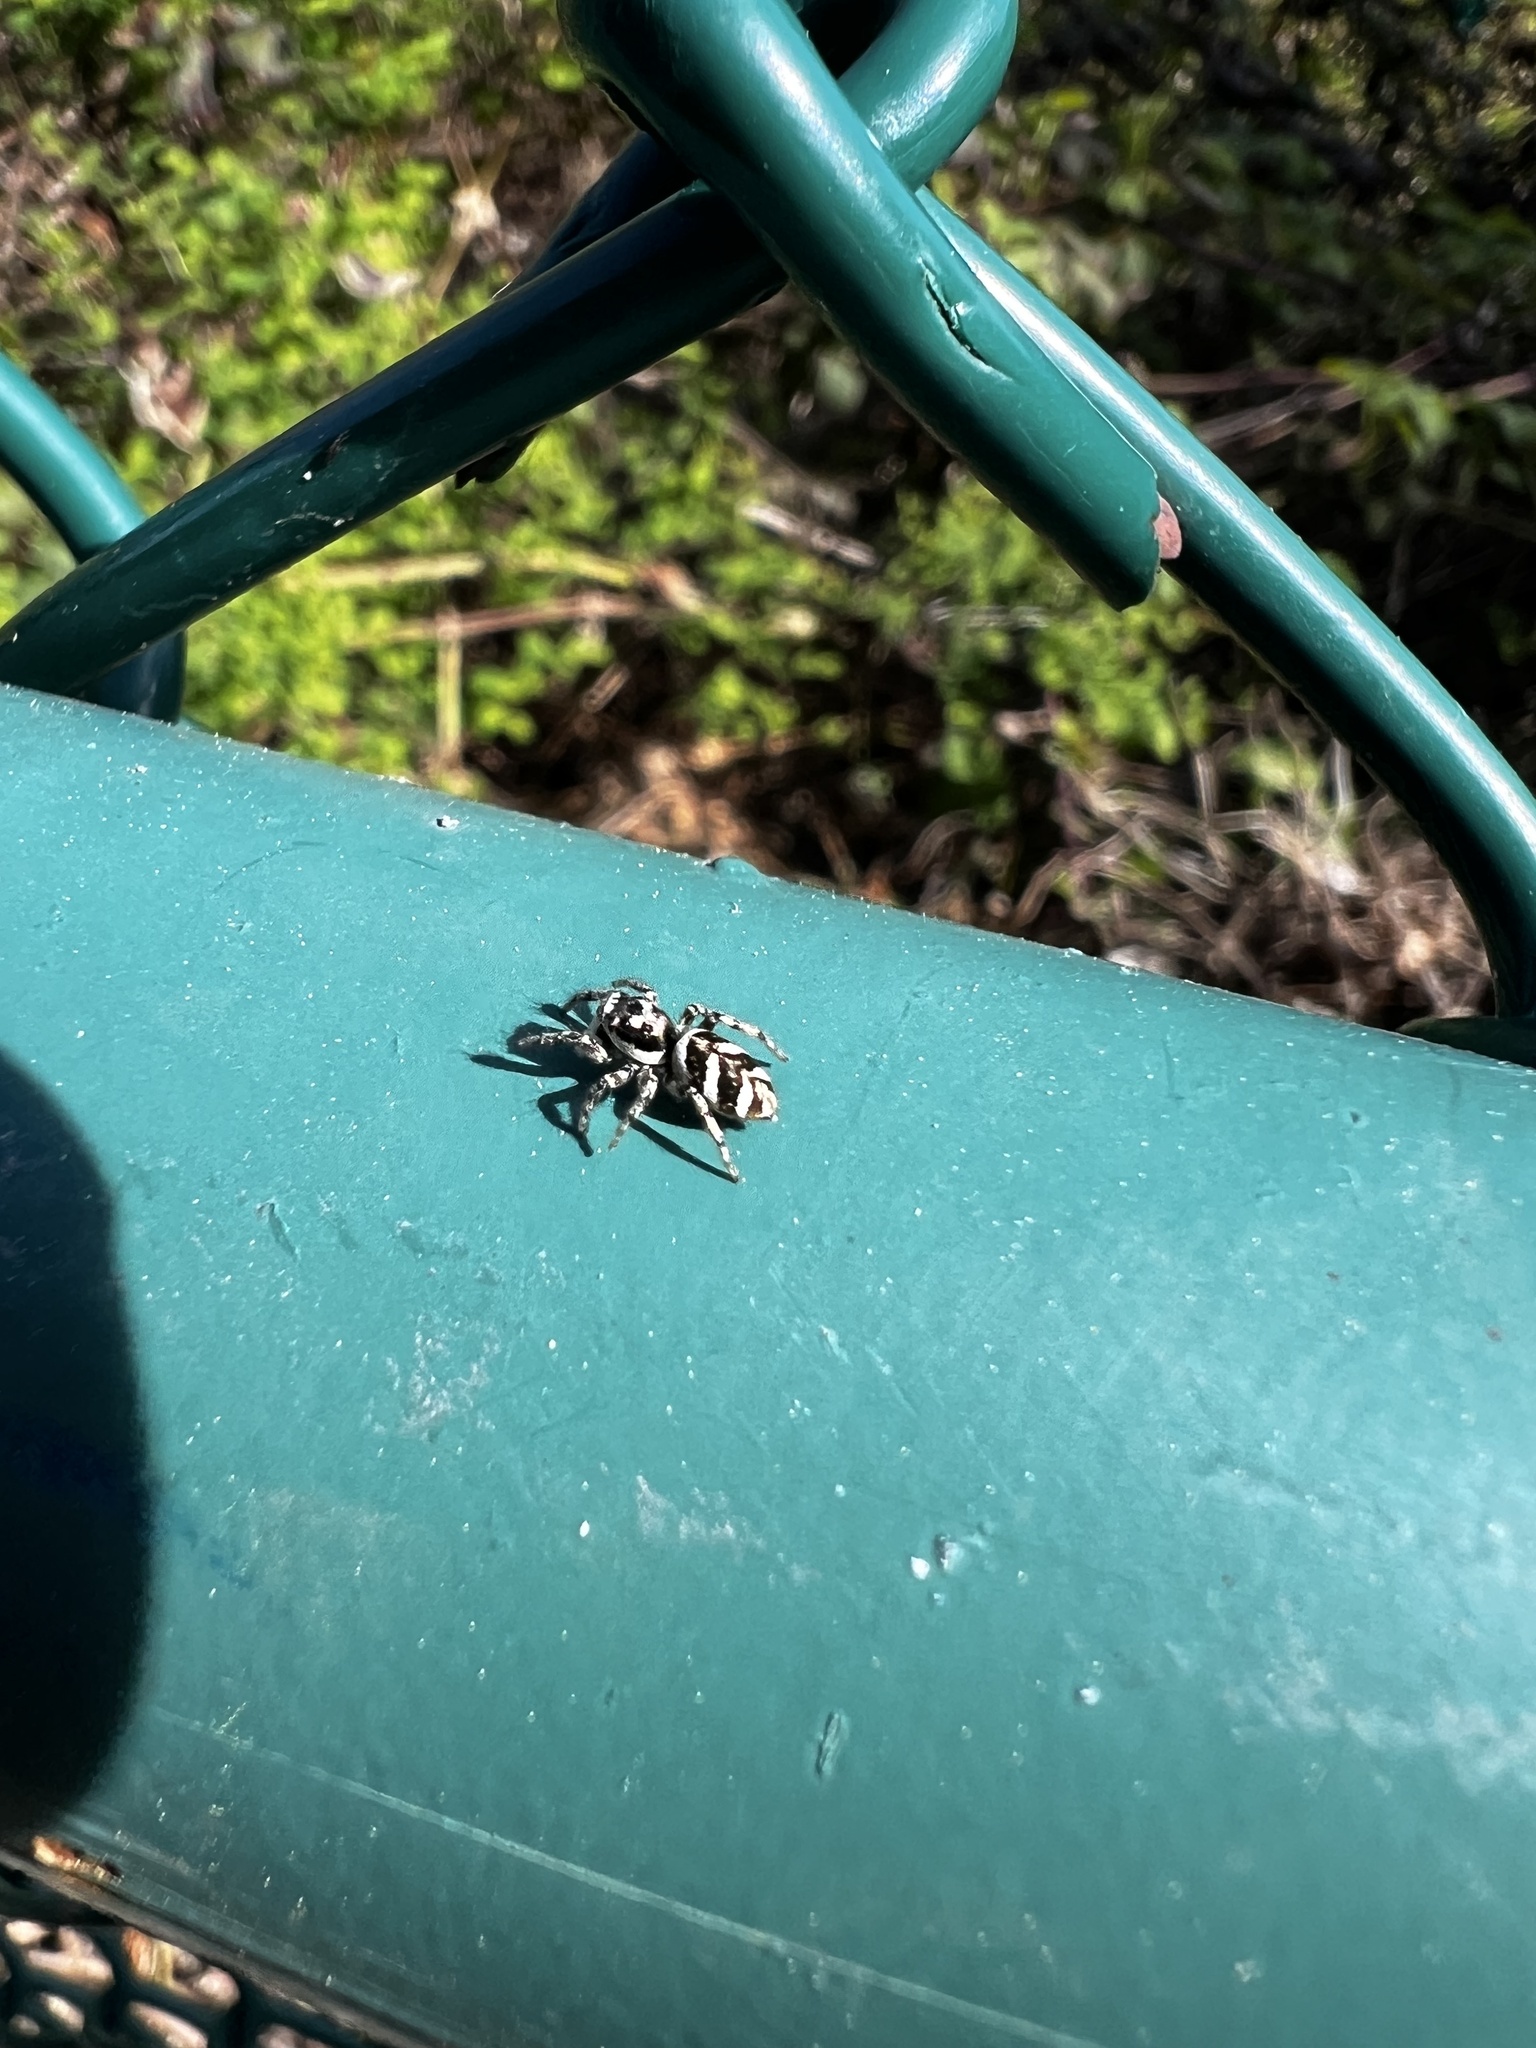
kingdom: Animalia
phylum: Arthropoda
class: Arachnida
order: Araneae
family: Salticidae
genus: Salticus
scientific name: Salticus scenicus
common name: Zebra jumper
